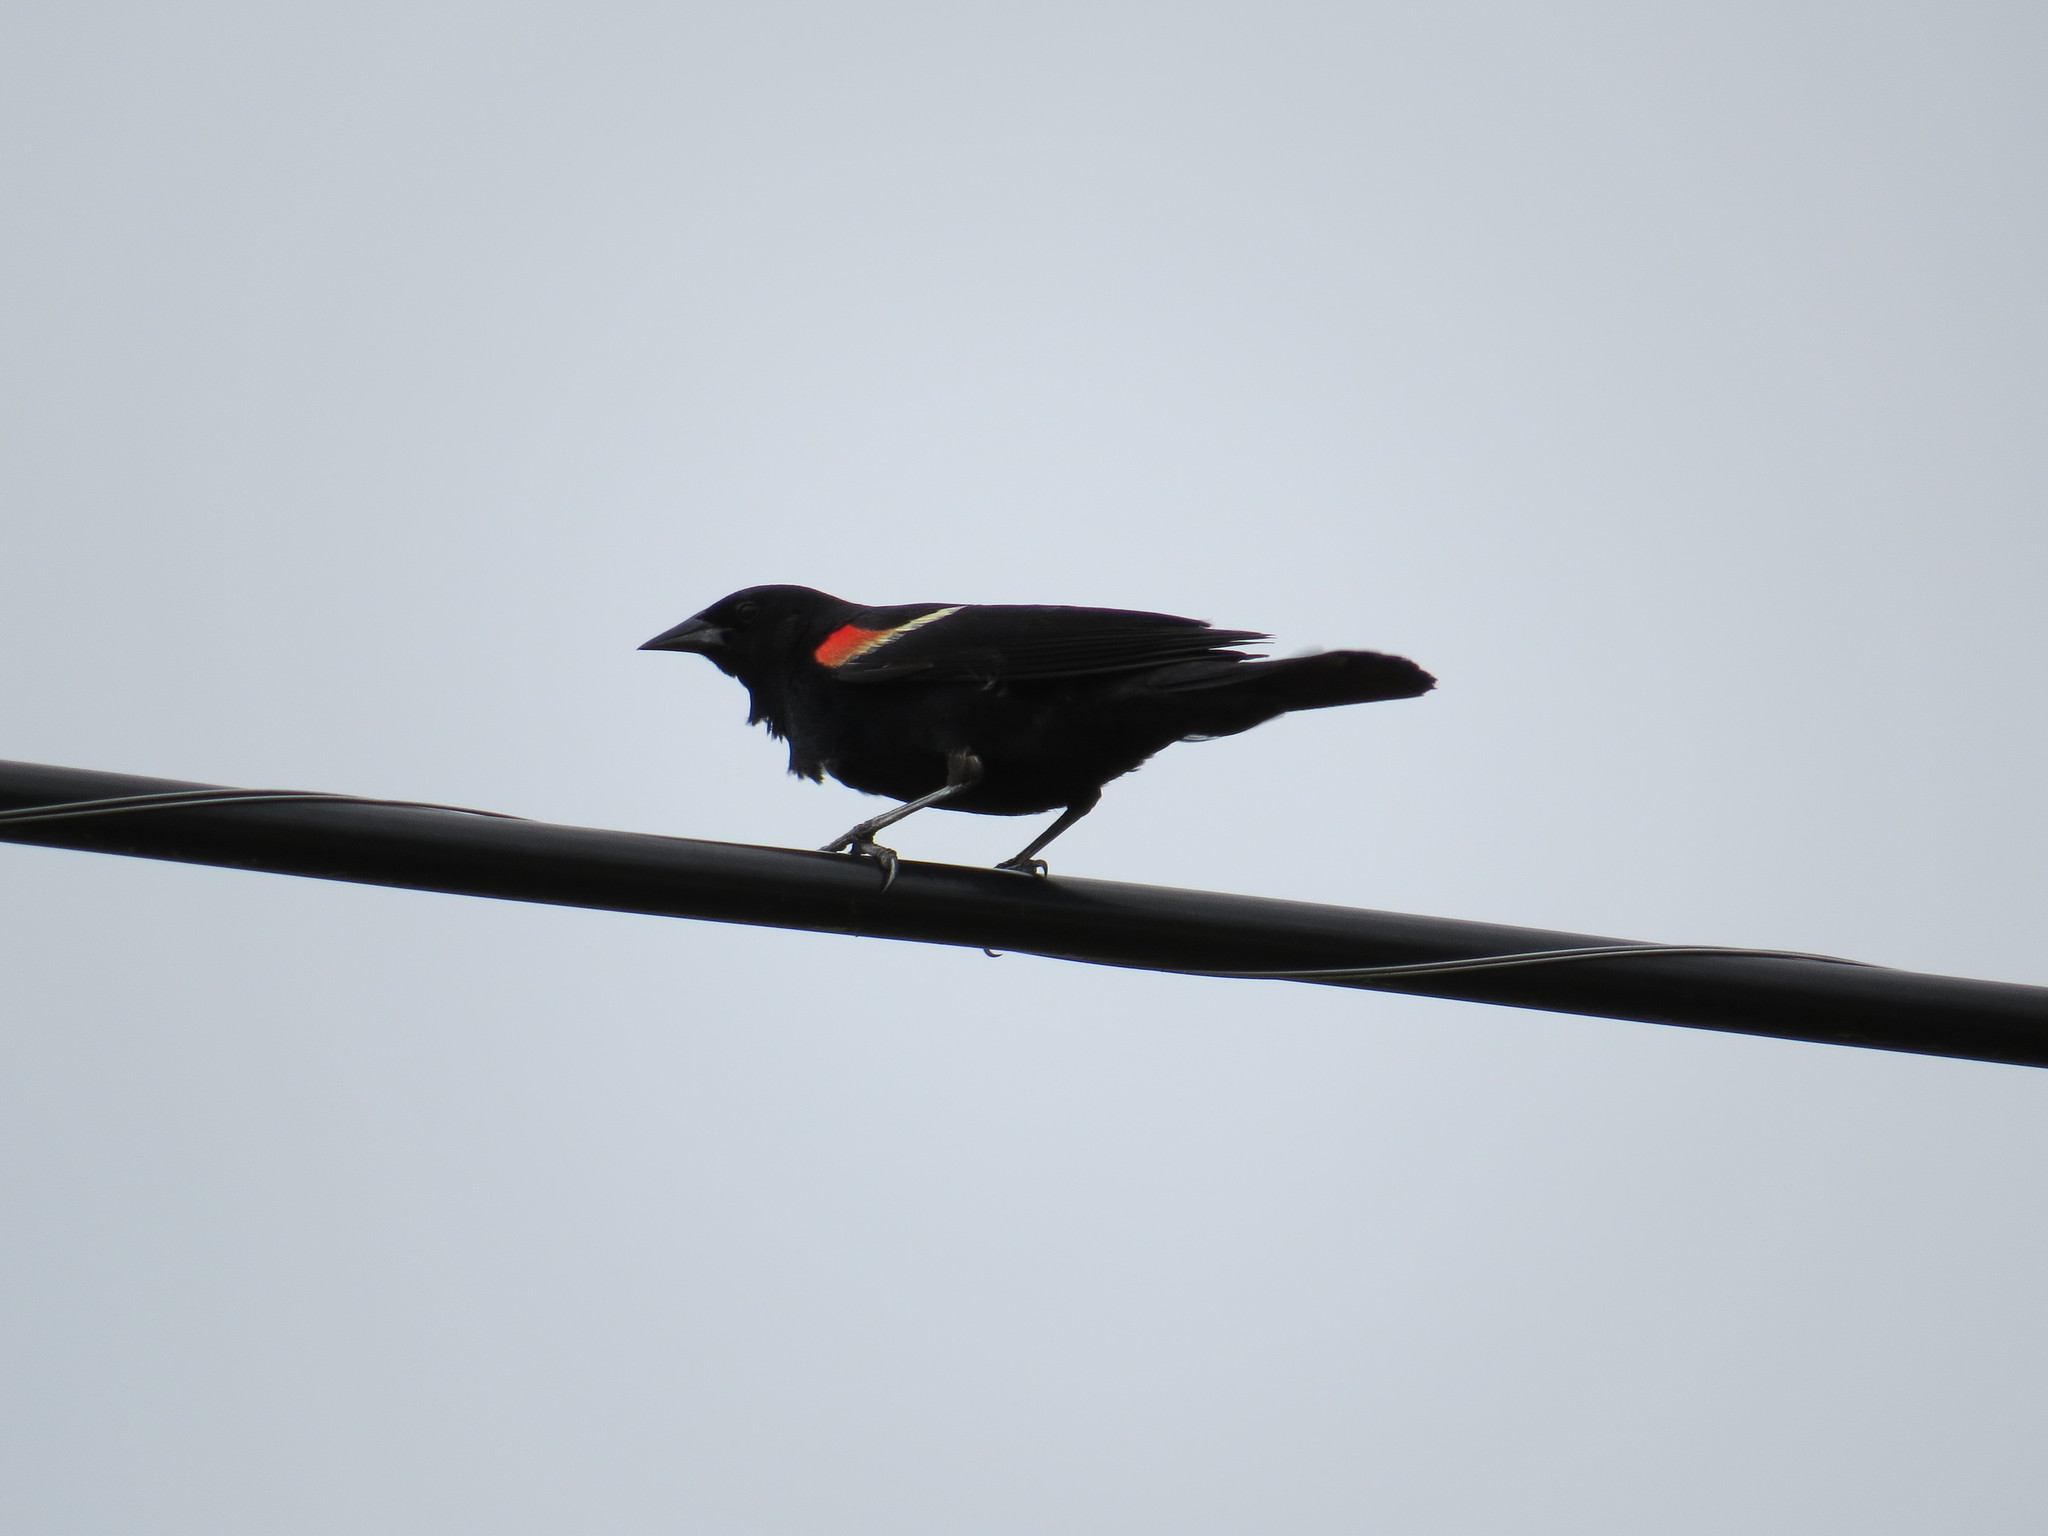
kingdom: Animalia
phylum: Chordata
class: Aves
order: Passeriformes
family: Icteridae
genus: Agelaius
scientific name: Agelaius phoeniceus
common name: Red-winged blackbird
